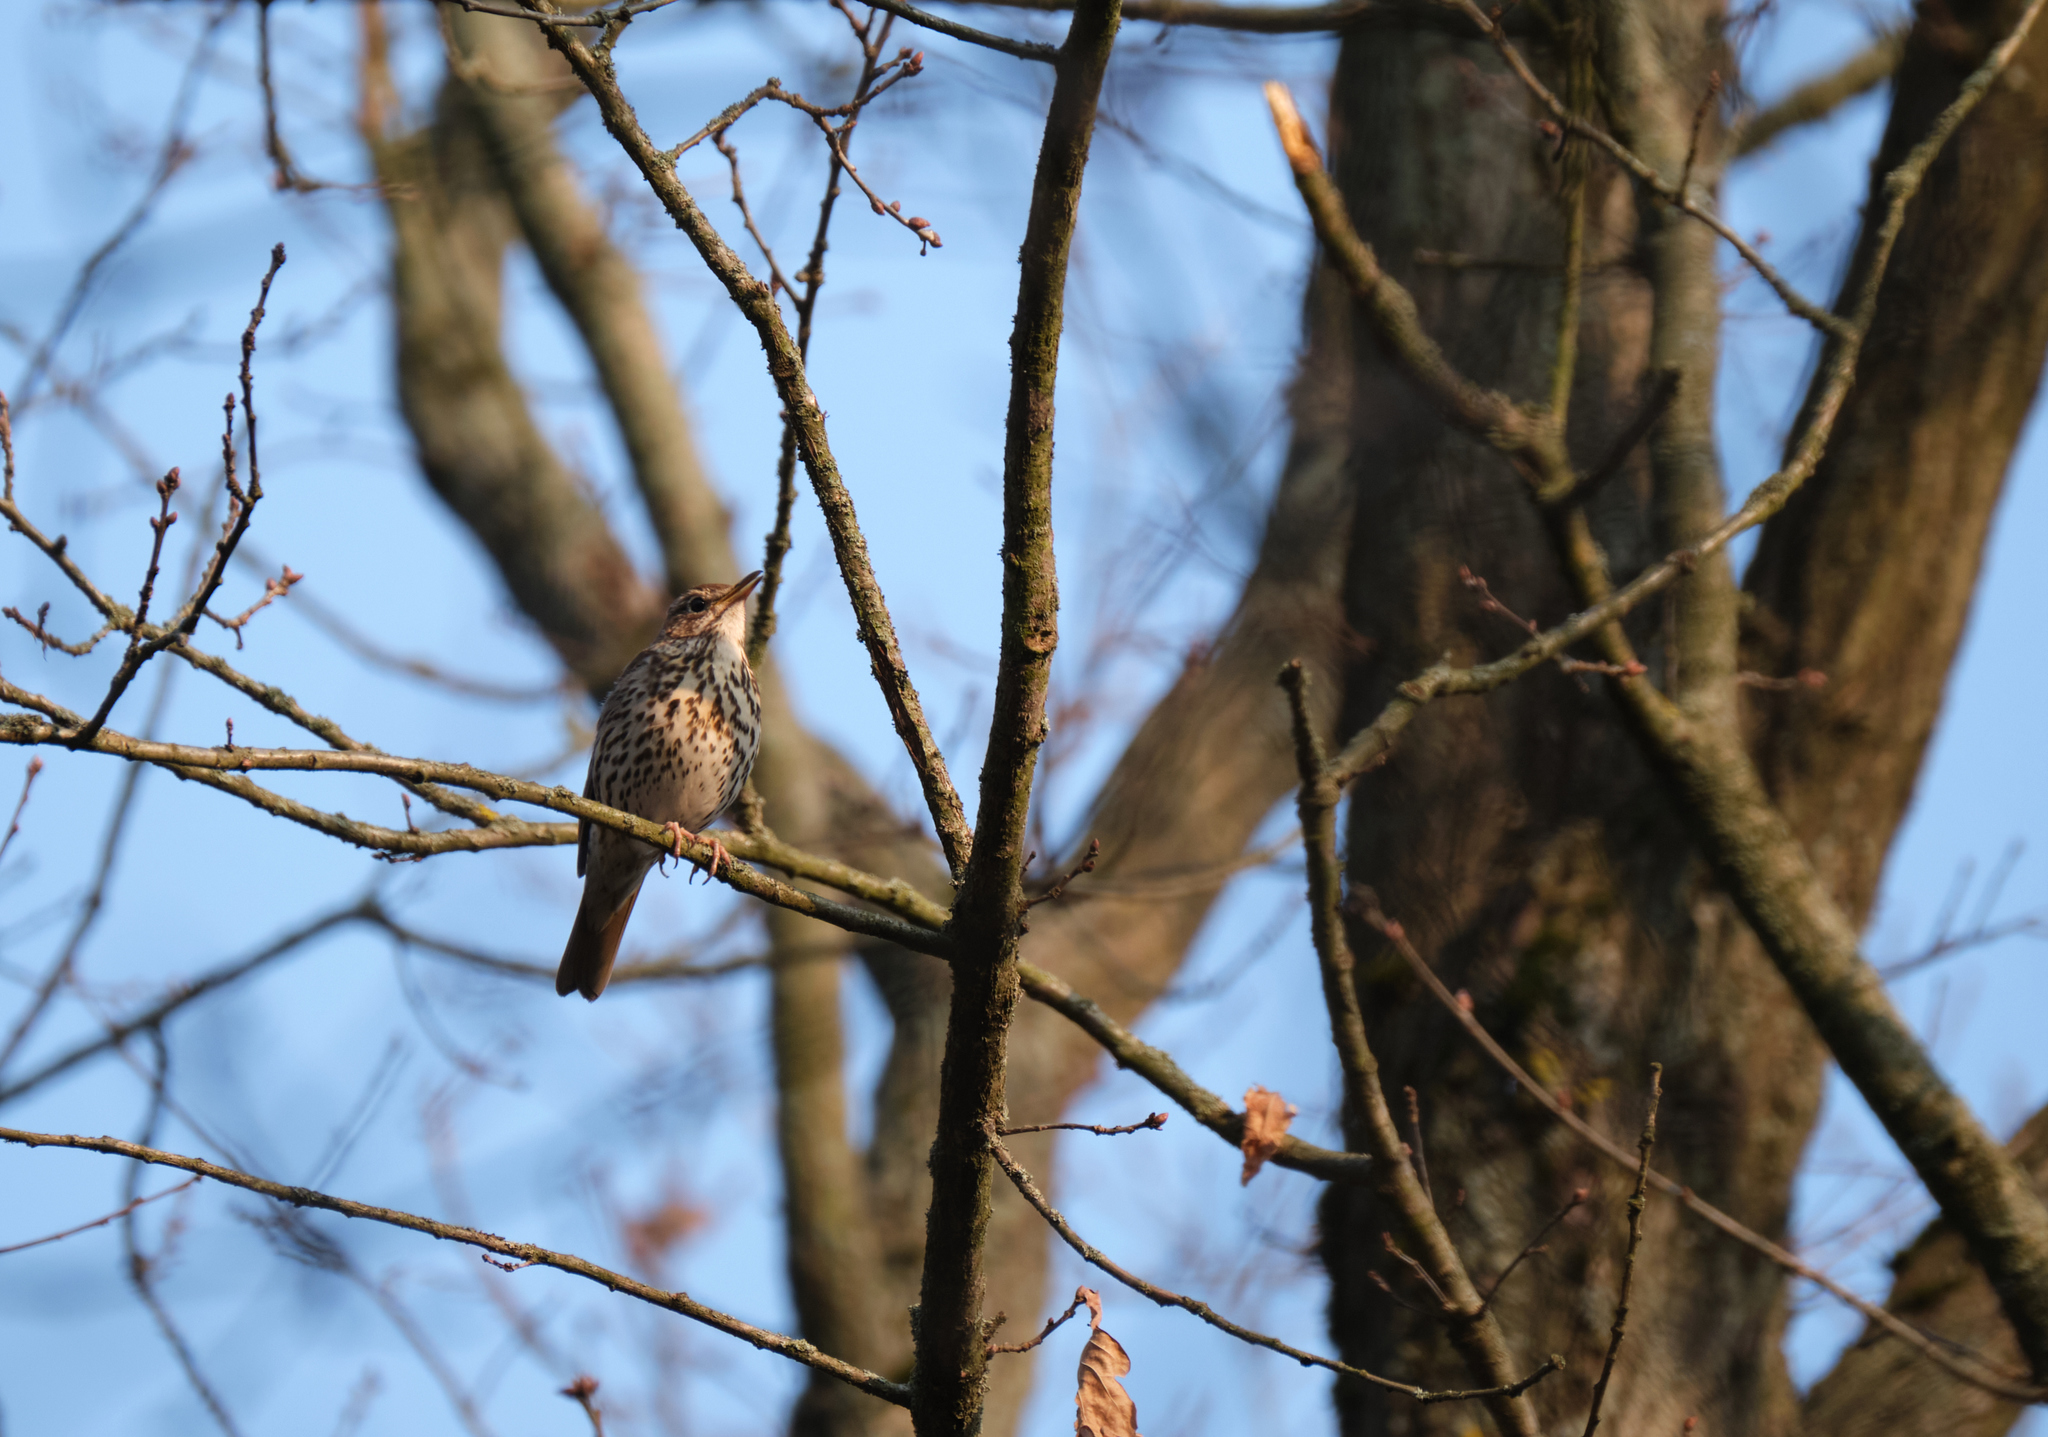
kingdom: Animalia
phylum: Chordata
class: Aves
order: Passeriformes
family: Turdidae
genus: Turdus
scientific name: Turdus philomelos
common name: Song thrush
